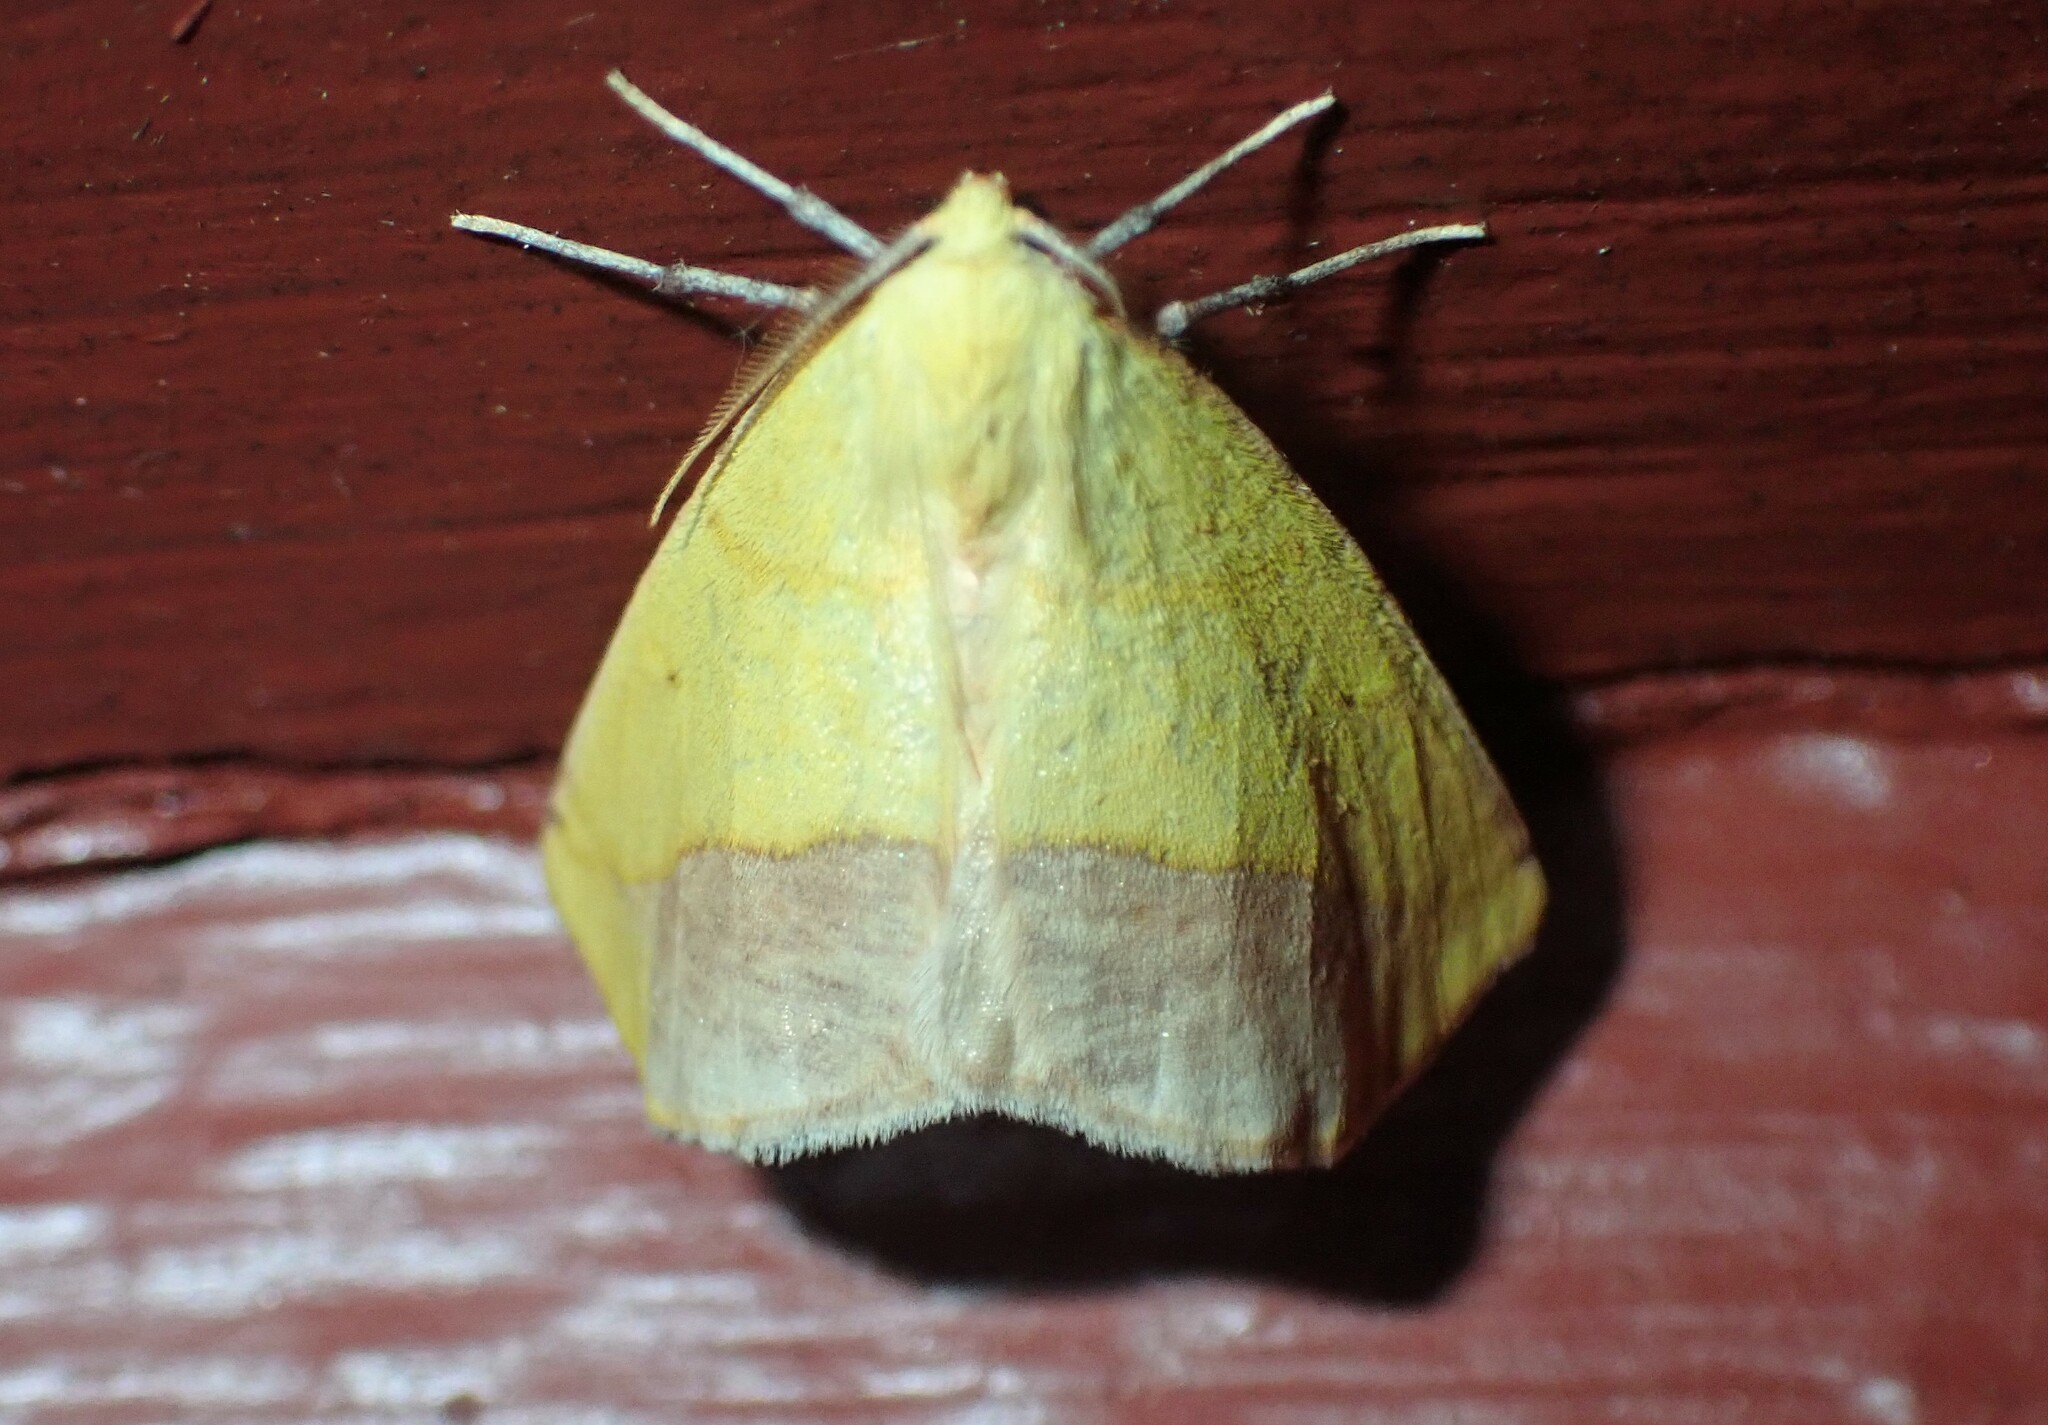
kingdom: Animalia
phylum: Arthropoda
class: Insecta
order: Lepidoptera
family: Geometridae
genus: Sicya
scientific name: Sicya macularia
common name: Sharp-lined yellow
